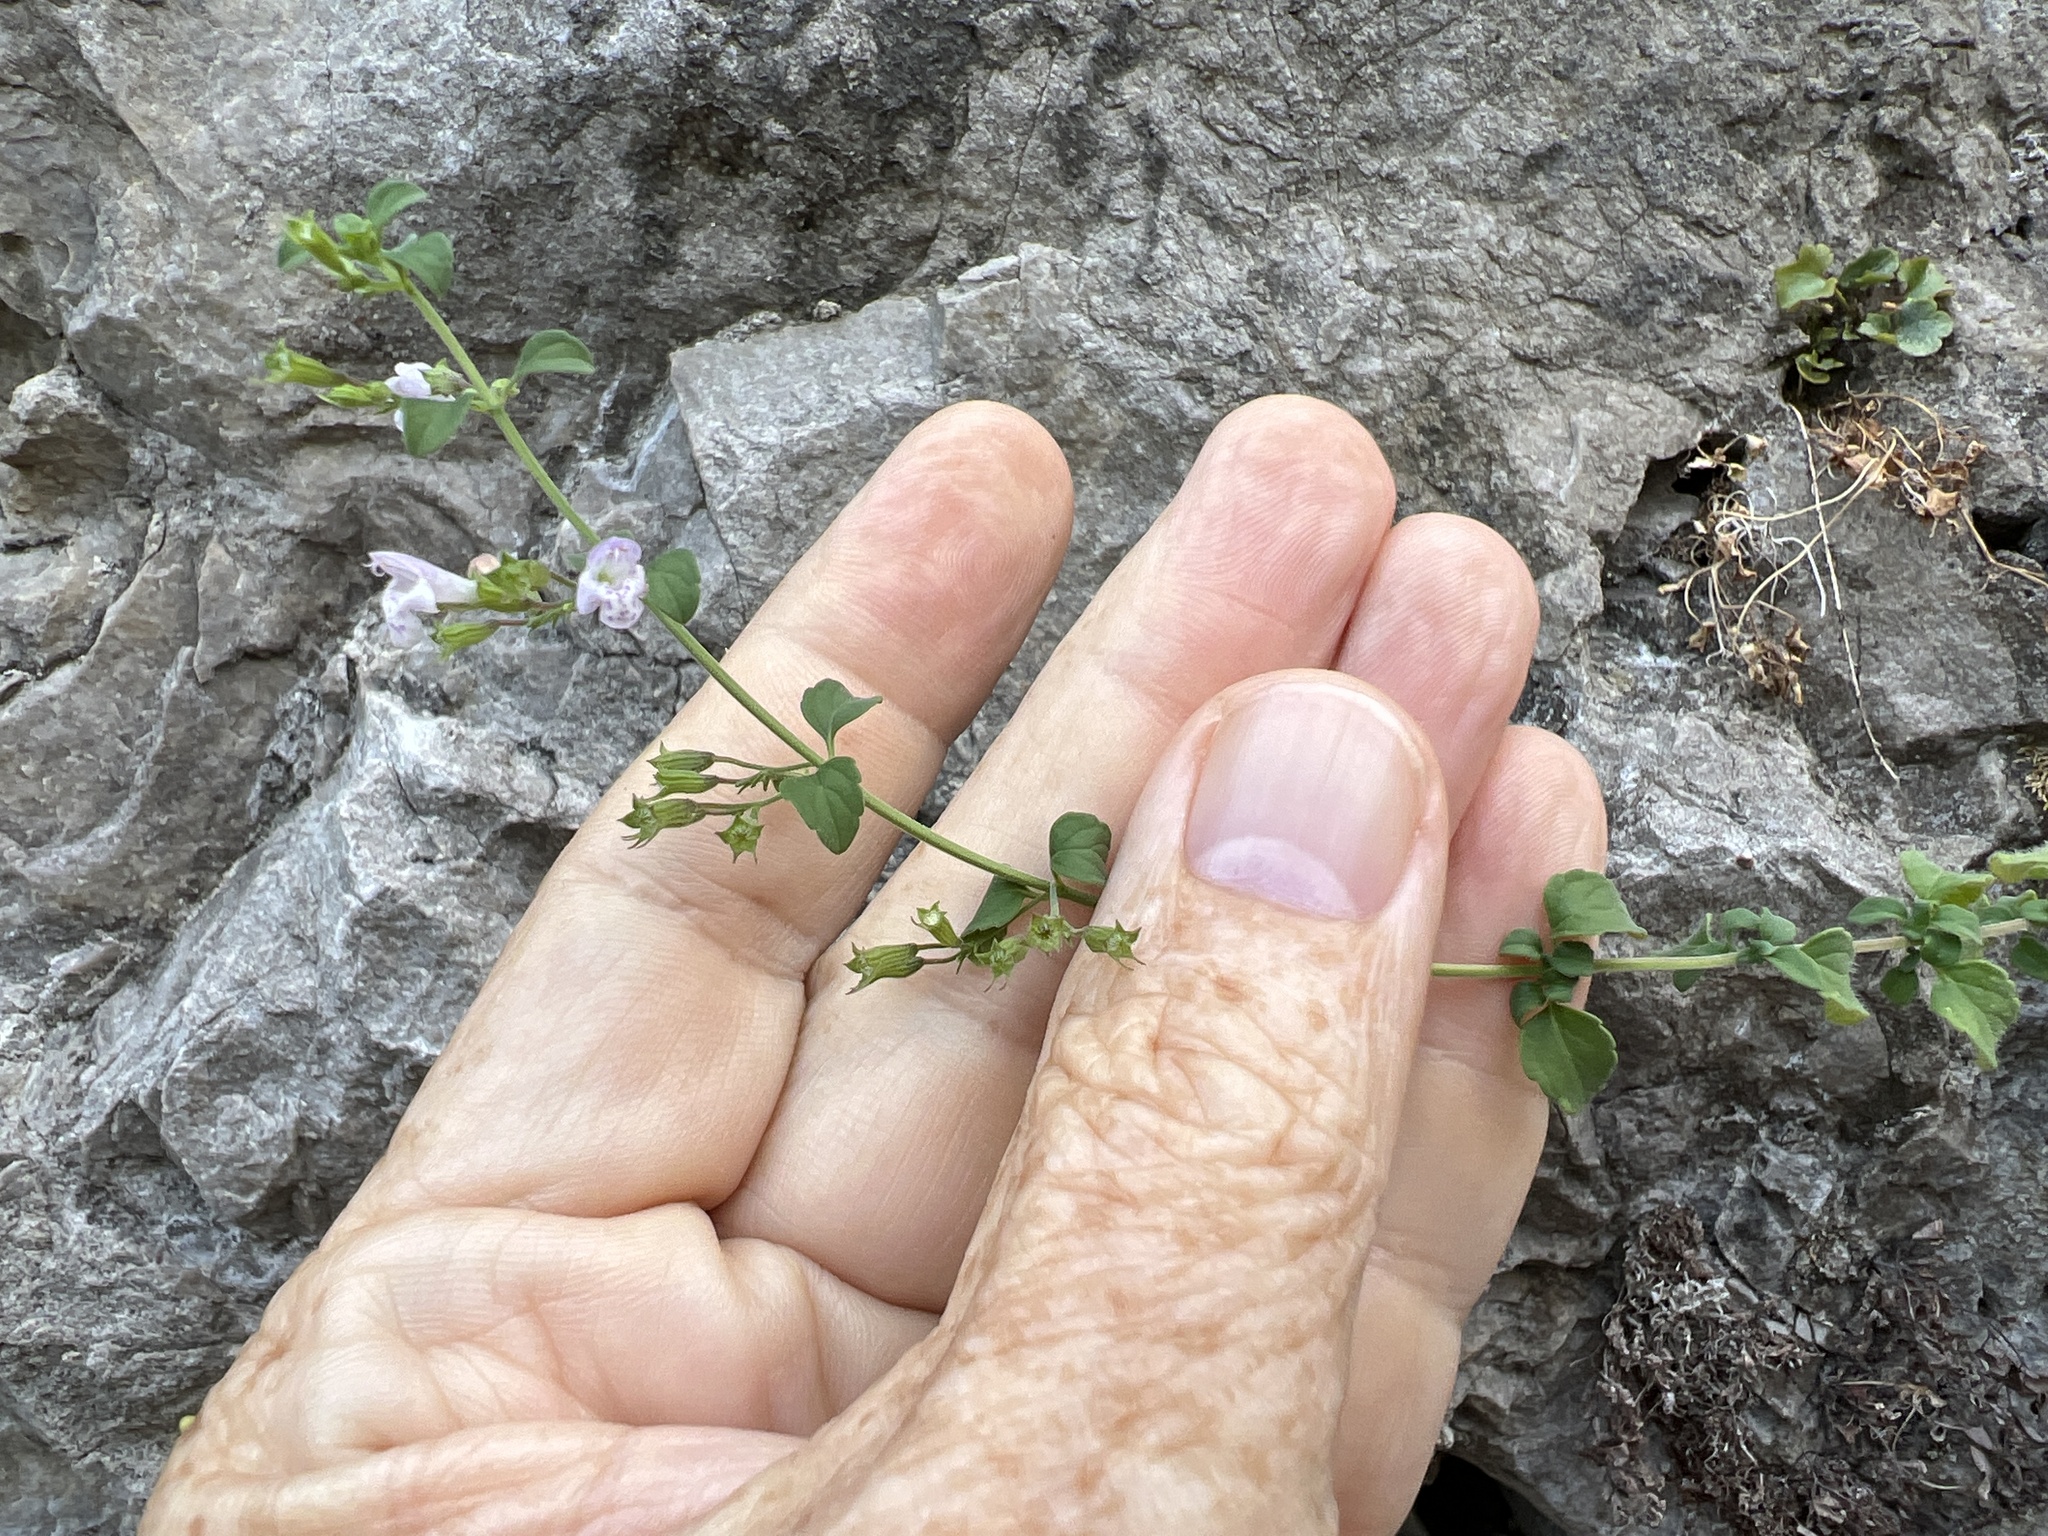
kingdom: Plantae
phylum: Tracheophyta
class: Magnoliopsida
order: Lamiales
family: Lamiaceae
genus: Clinopodium
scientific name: Clinopodium nepeta
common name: Lesser calamint
